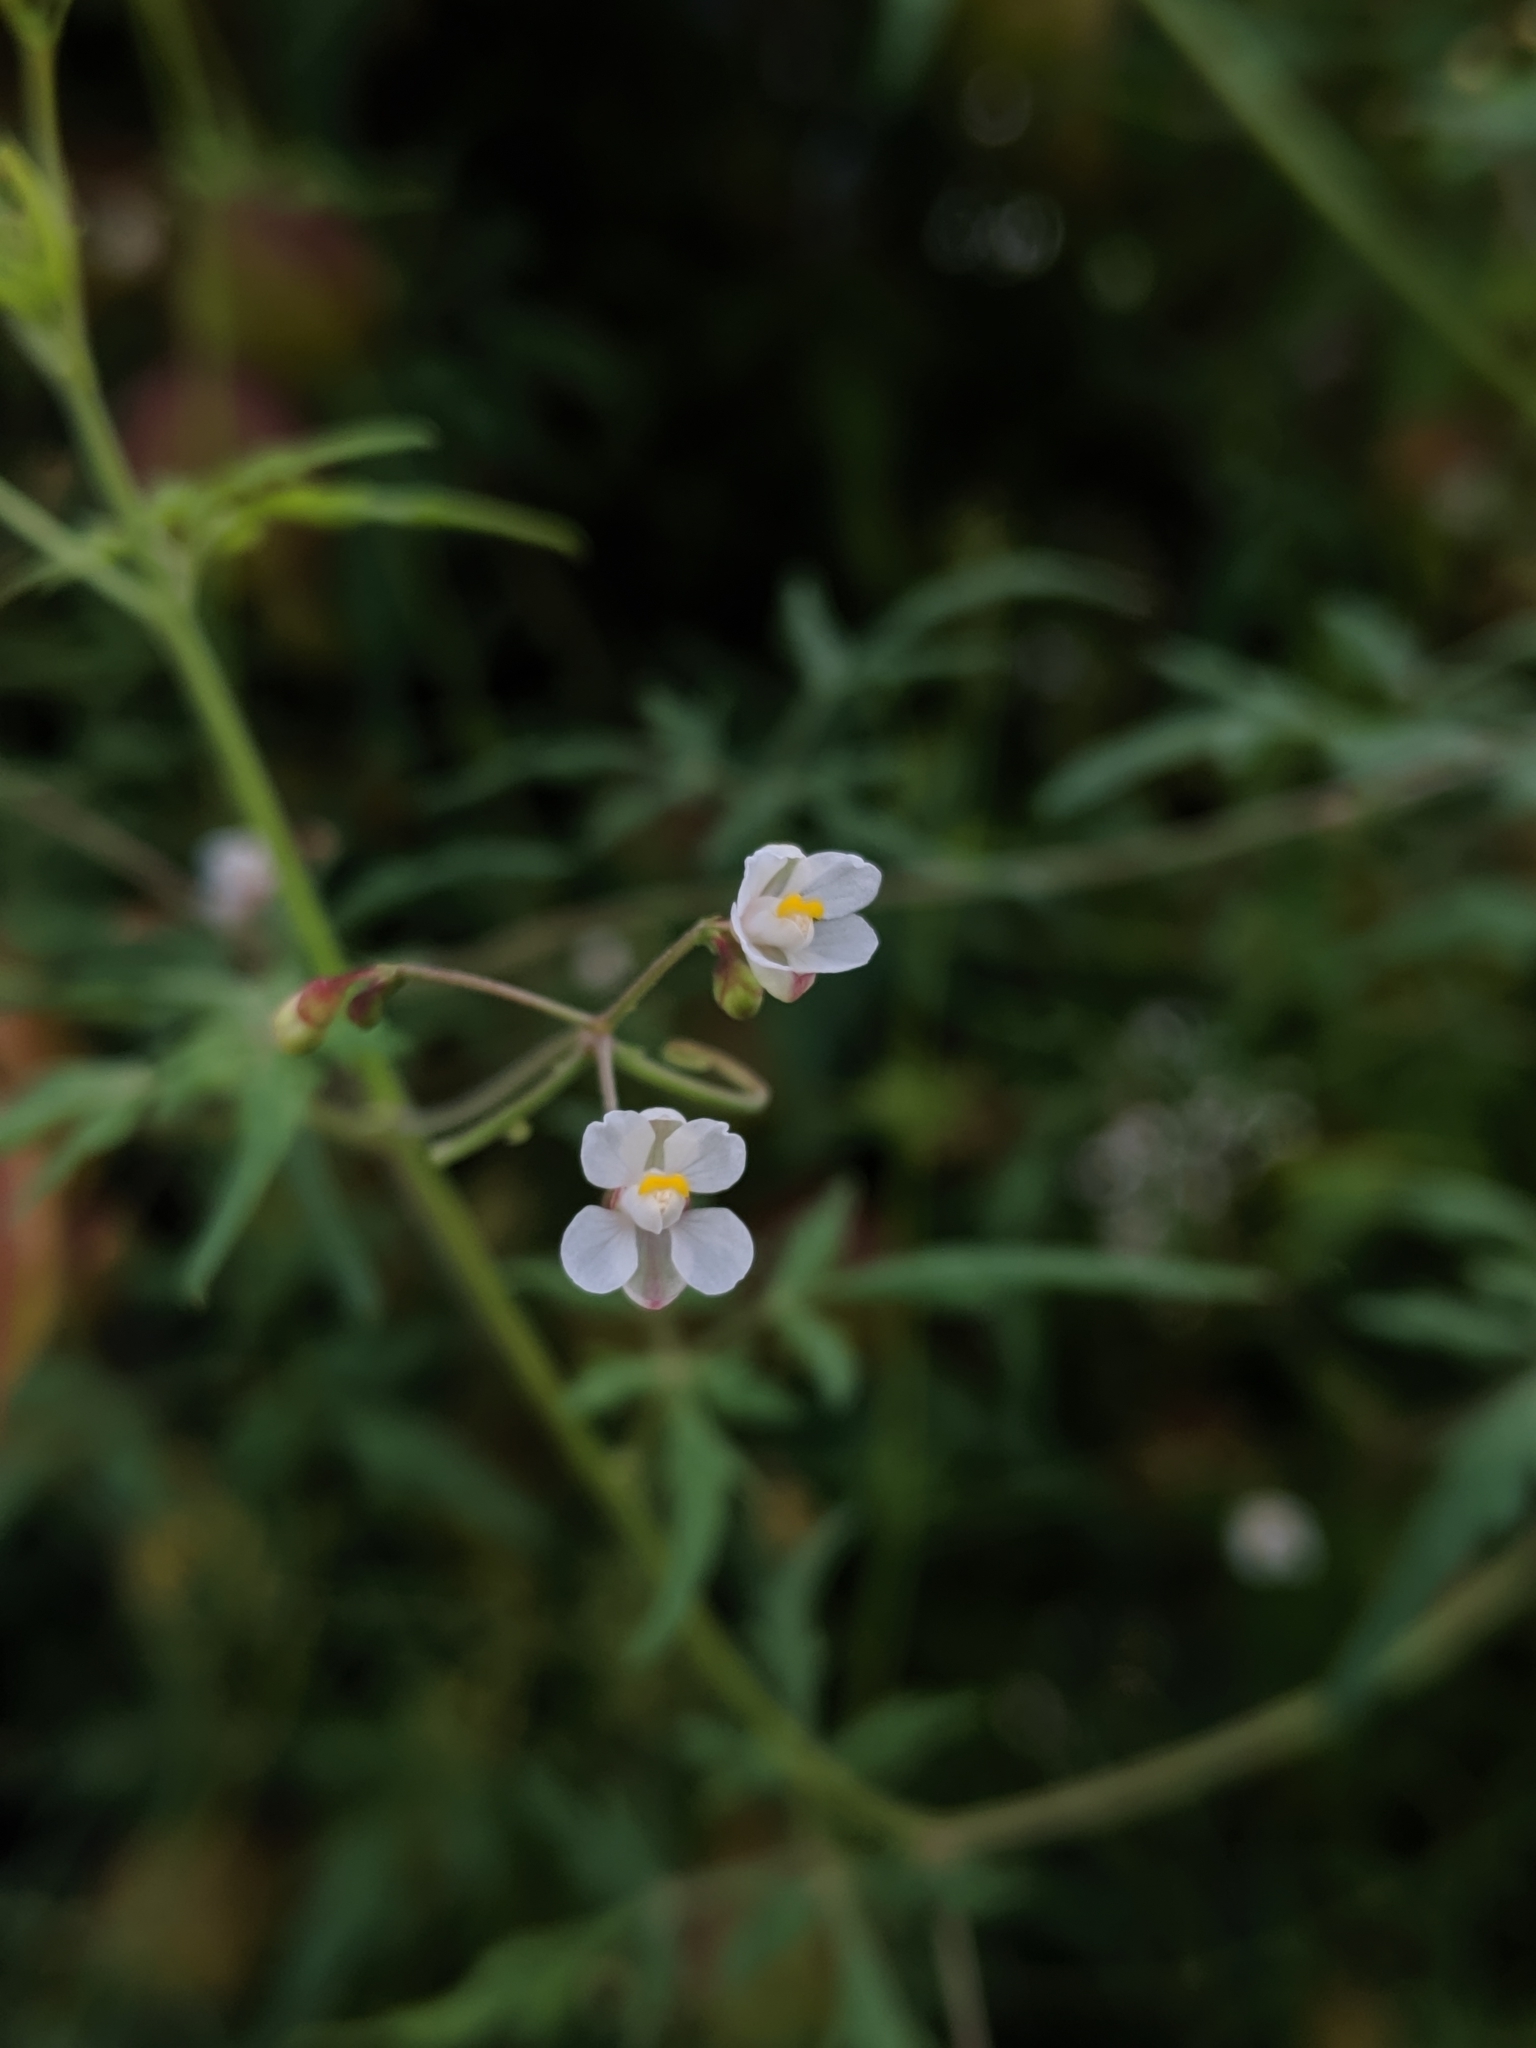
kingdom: Plantae
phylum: Tracheophyta
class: Magnoliopsida
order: Sapindales
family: Sapindaceae
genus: Cardiospermum
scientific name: Cardiospermum halicacabum
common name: Balloon vine
